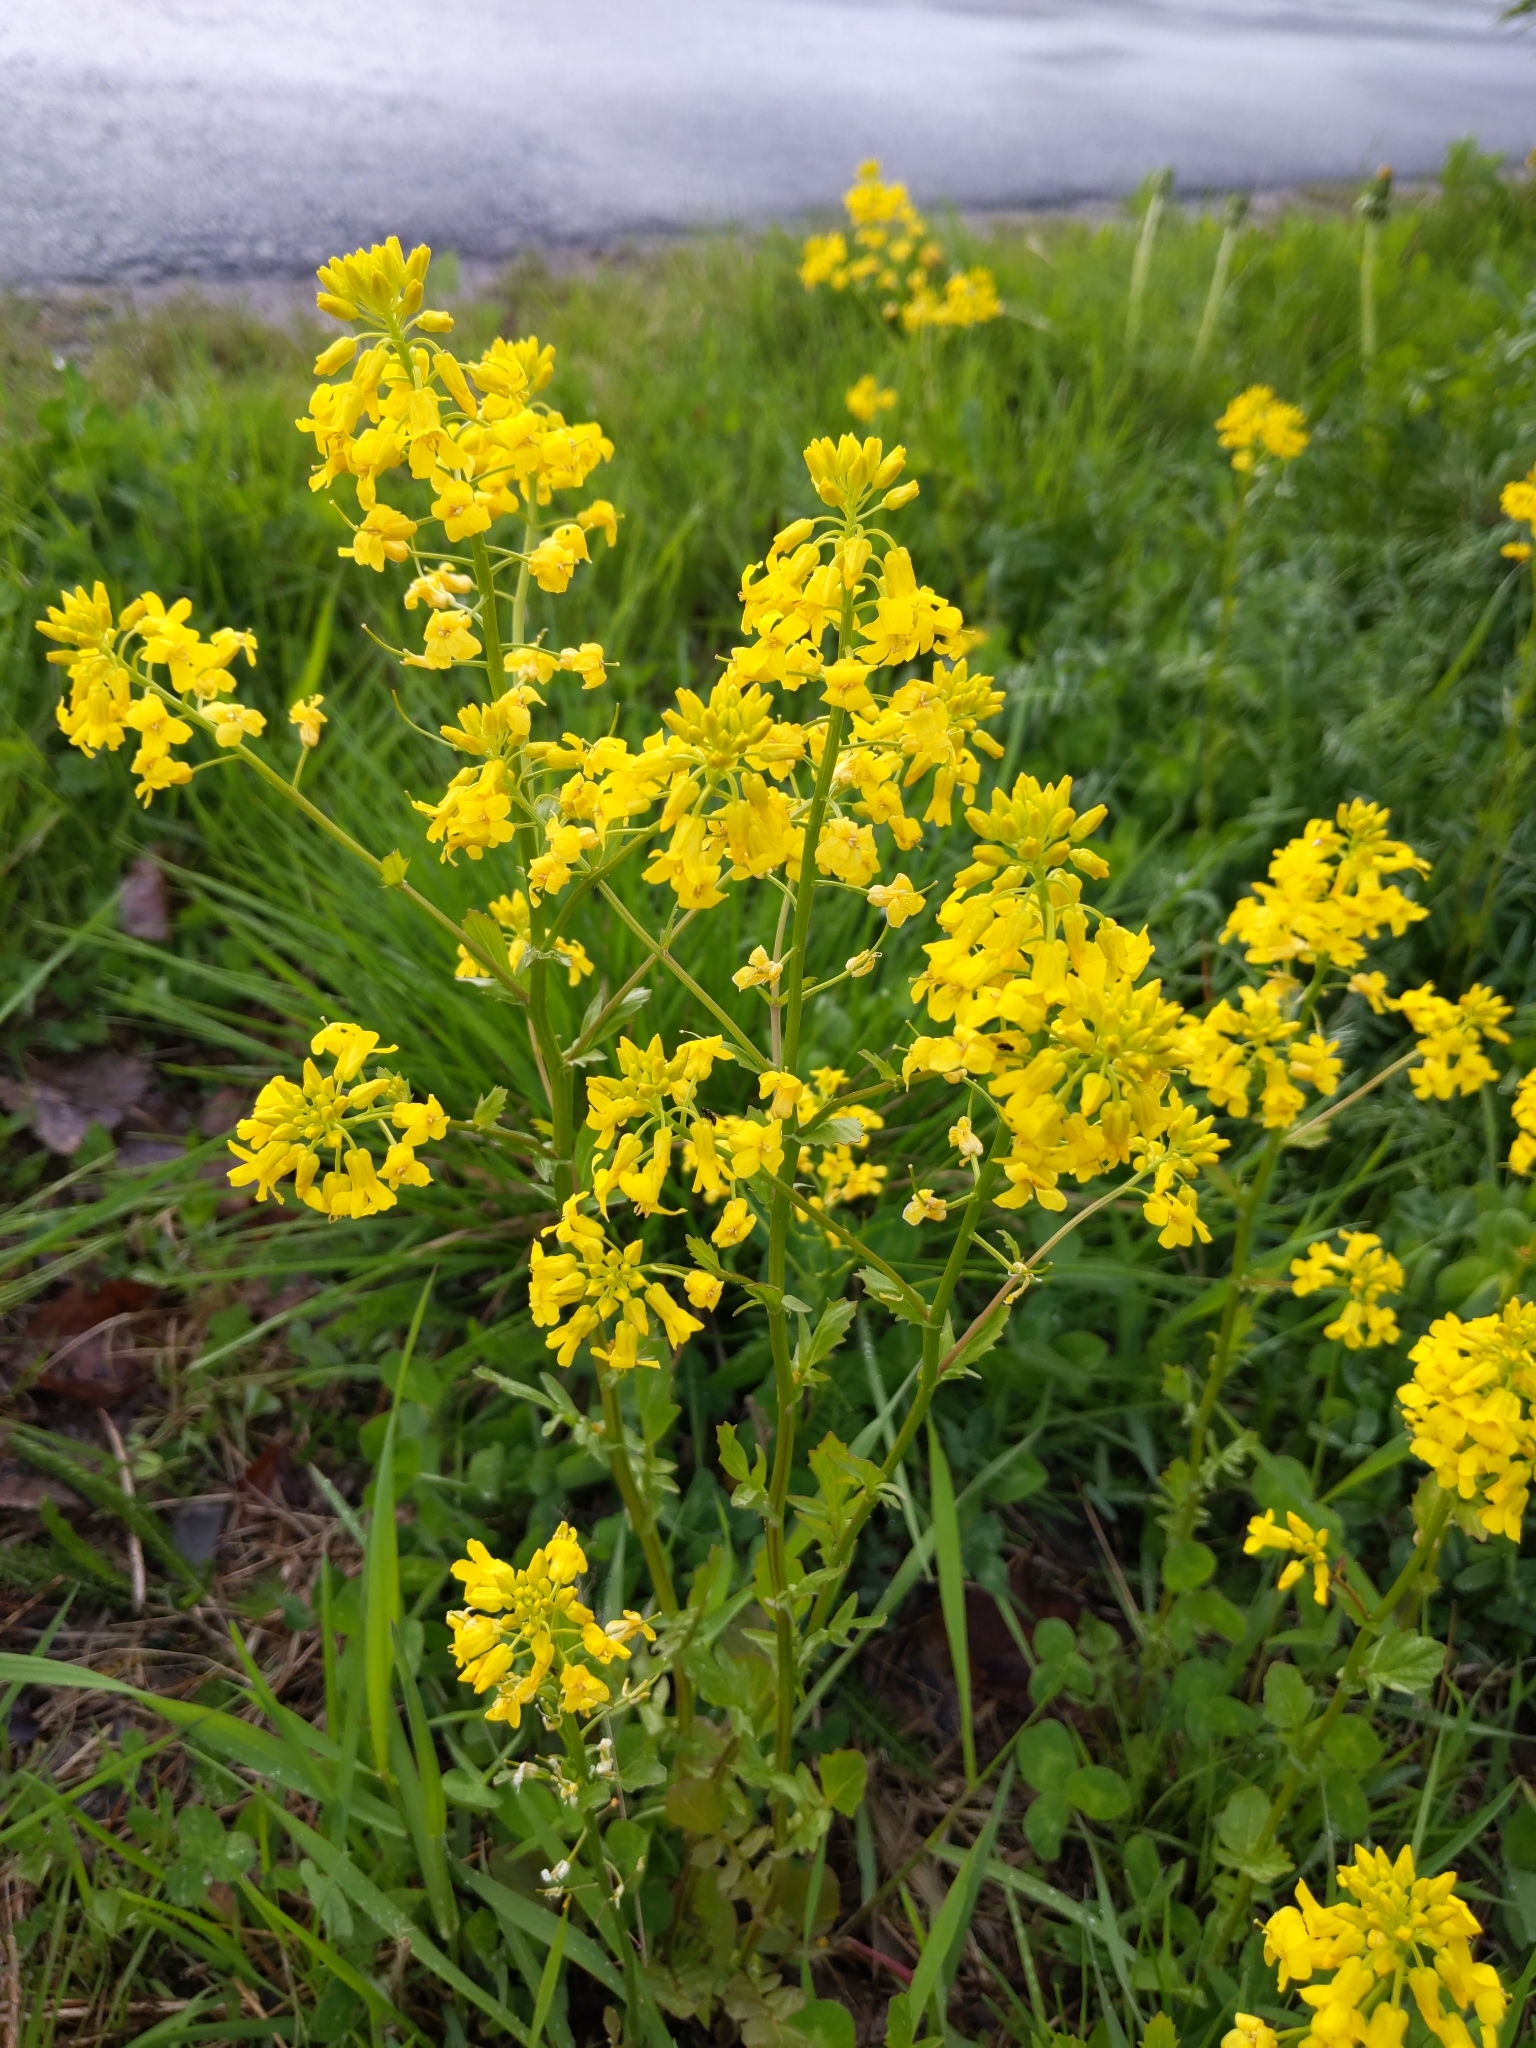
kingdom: Plantae
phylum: Tracheophyta
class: Magnoliopsida
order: Brassicales
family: Brassicaceae
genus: Barbarea
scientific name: Barbarea vulgaris
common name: Cressy-greens
